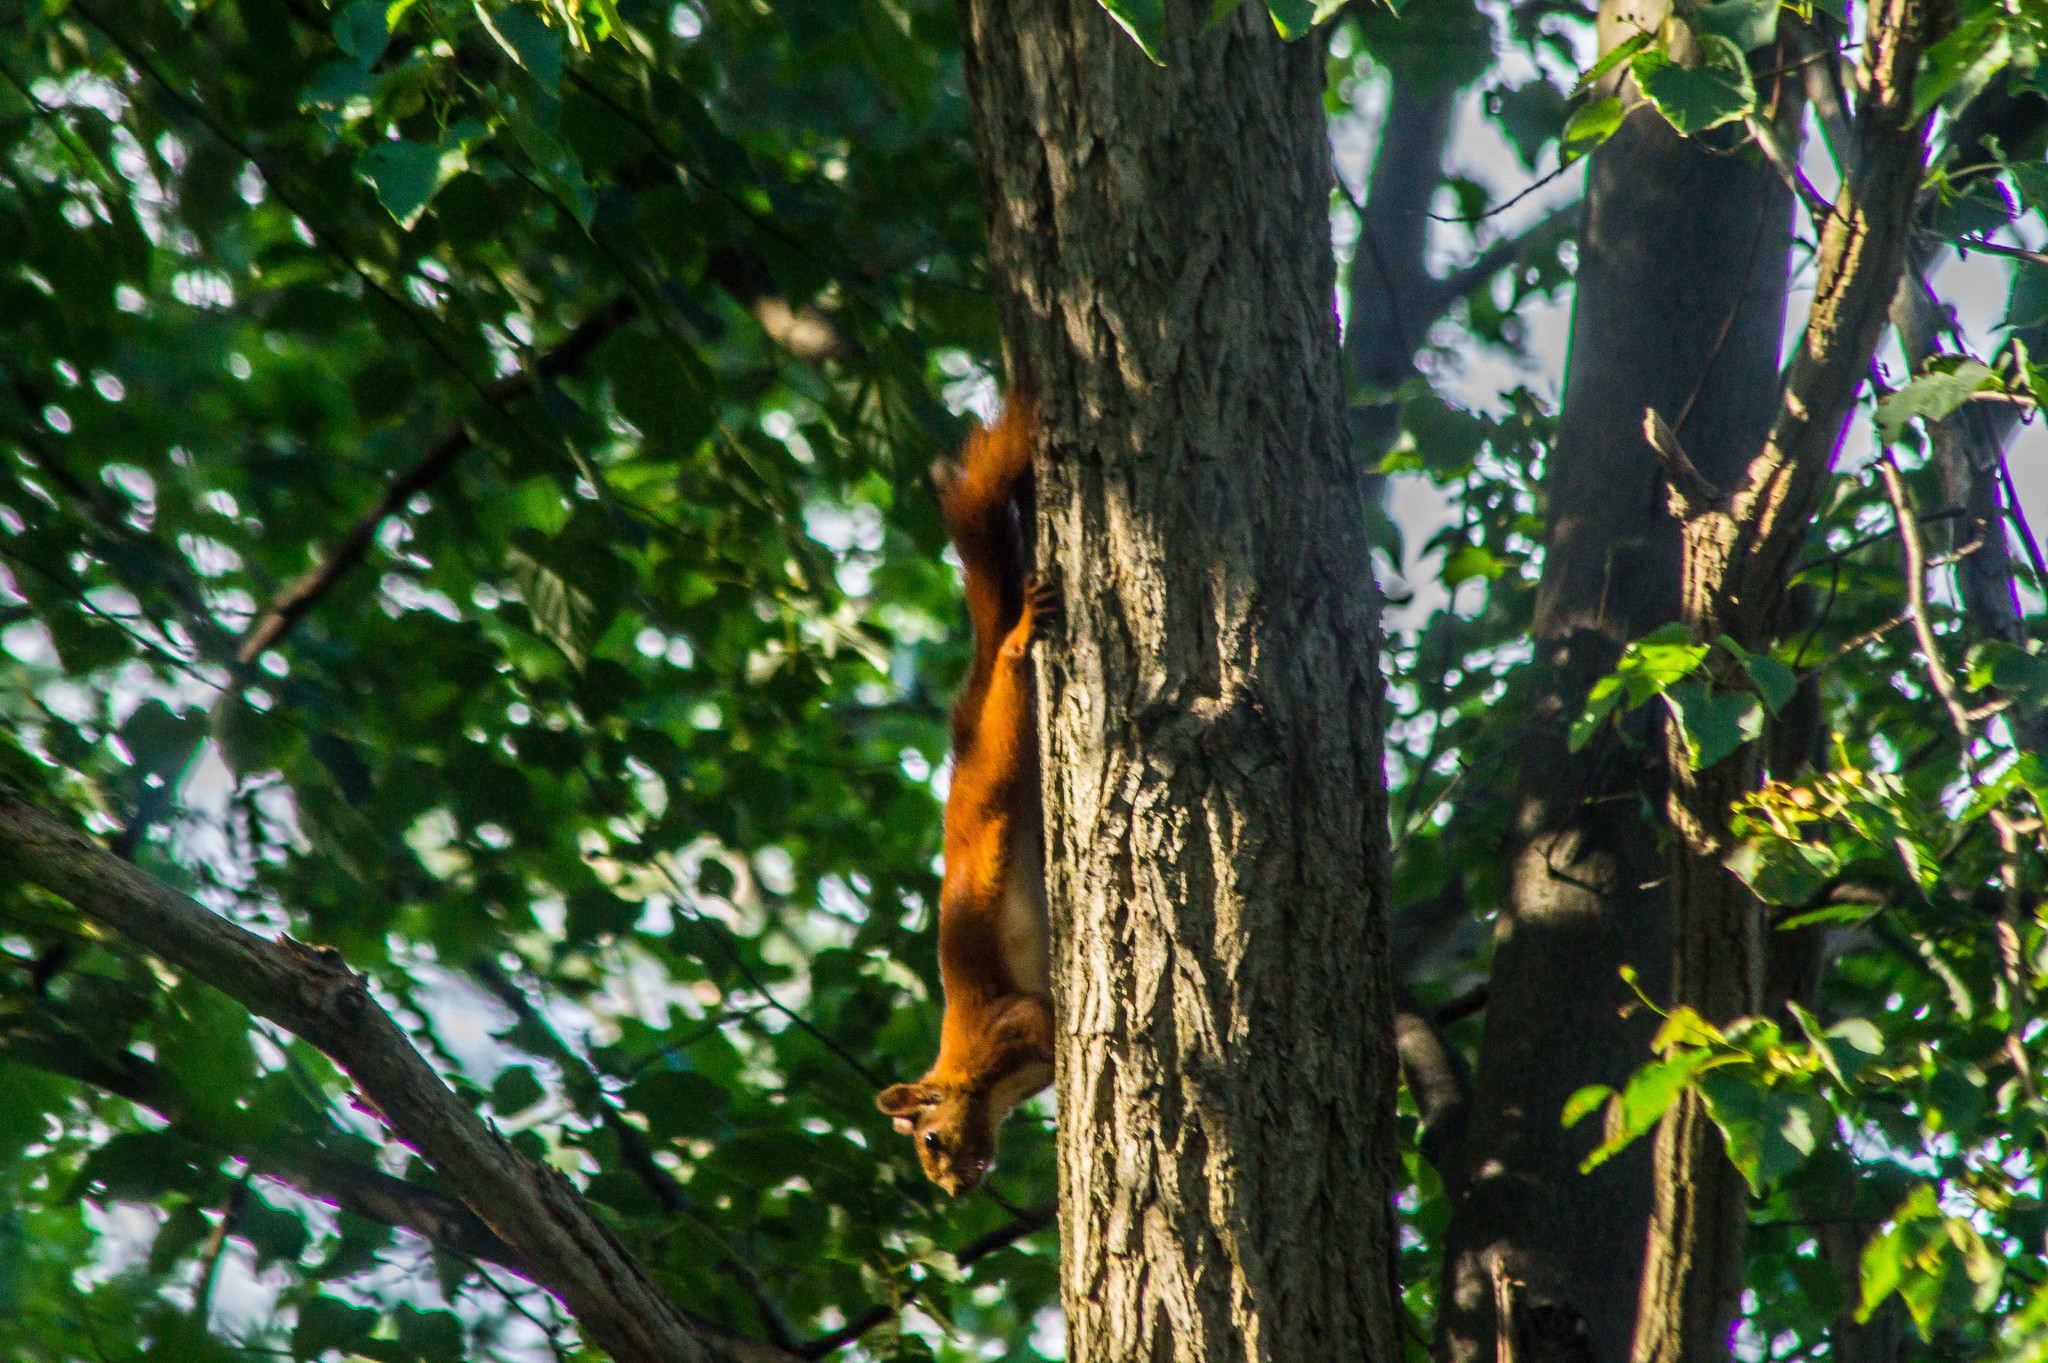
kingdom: Animalia
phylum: Chordata
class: Mammalia
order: Rodentia
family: Sciuridae
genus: Sciurus
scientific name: Sciurus vulgaris
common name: Eurasian red squirrel
